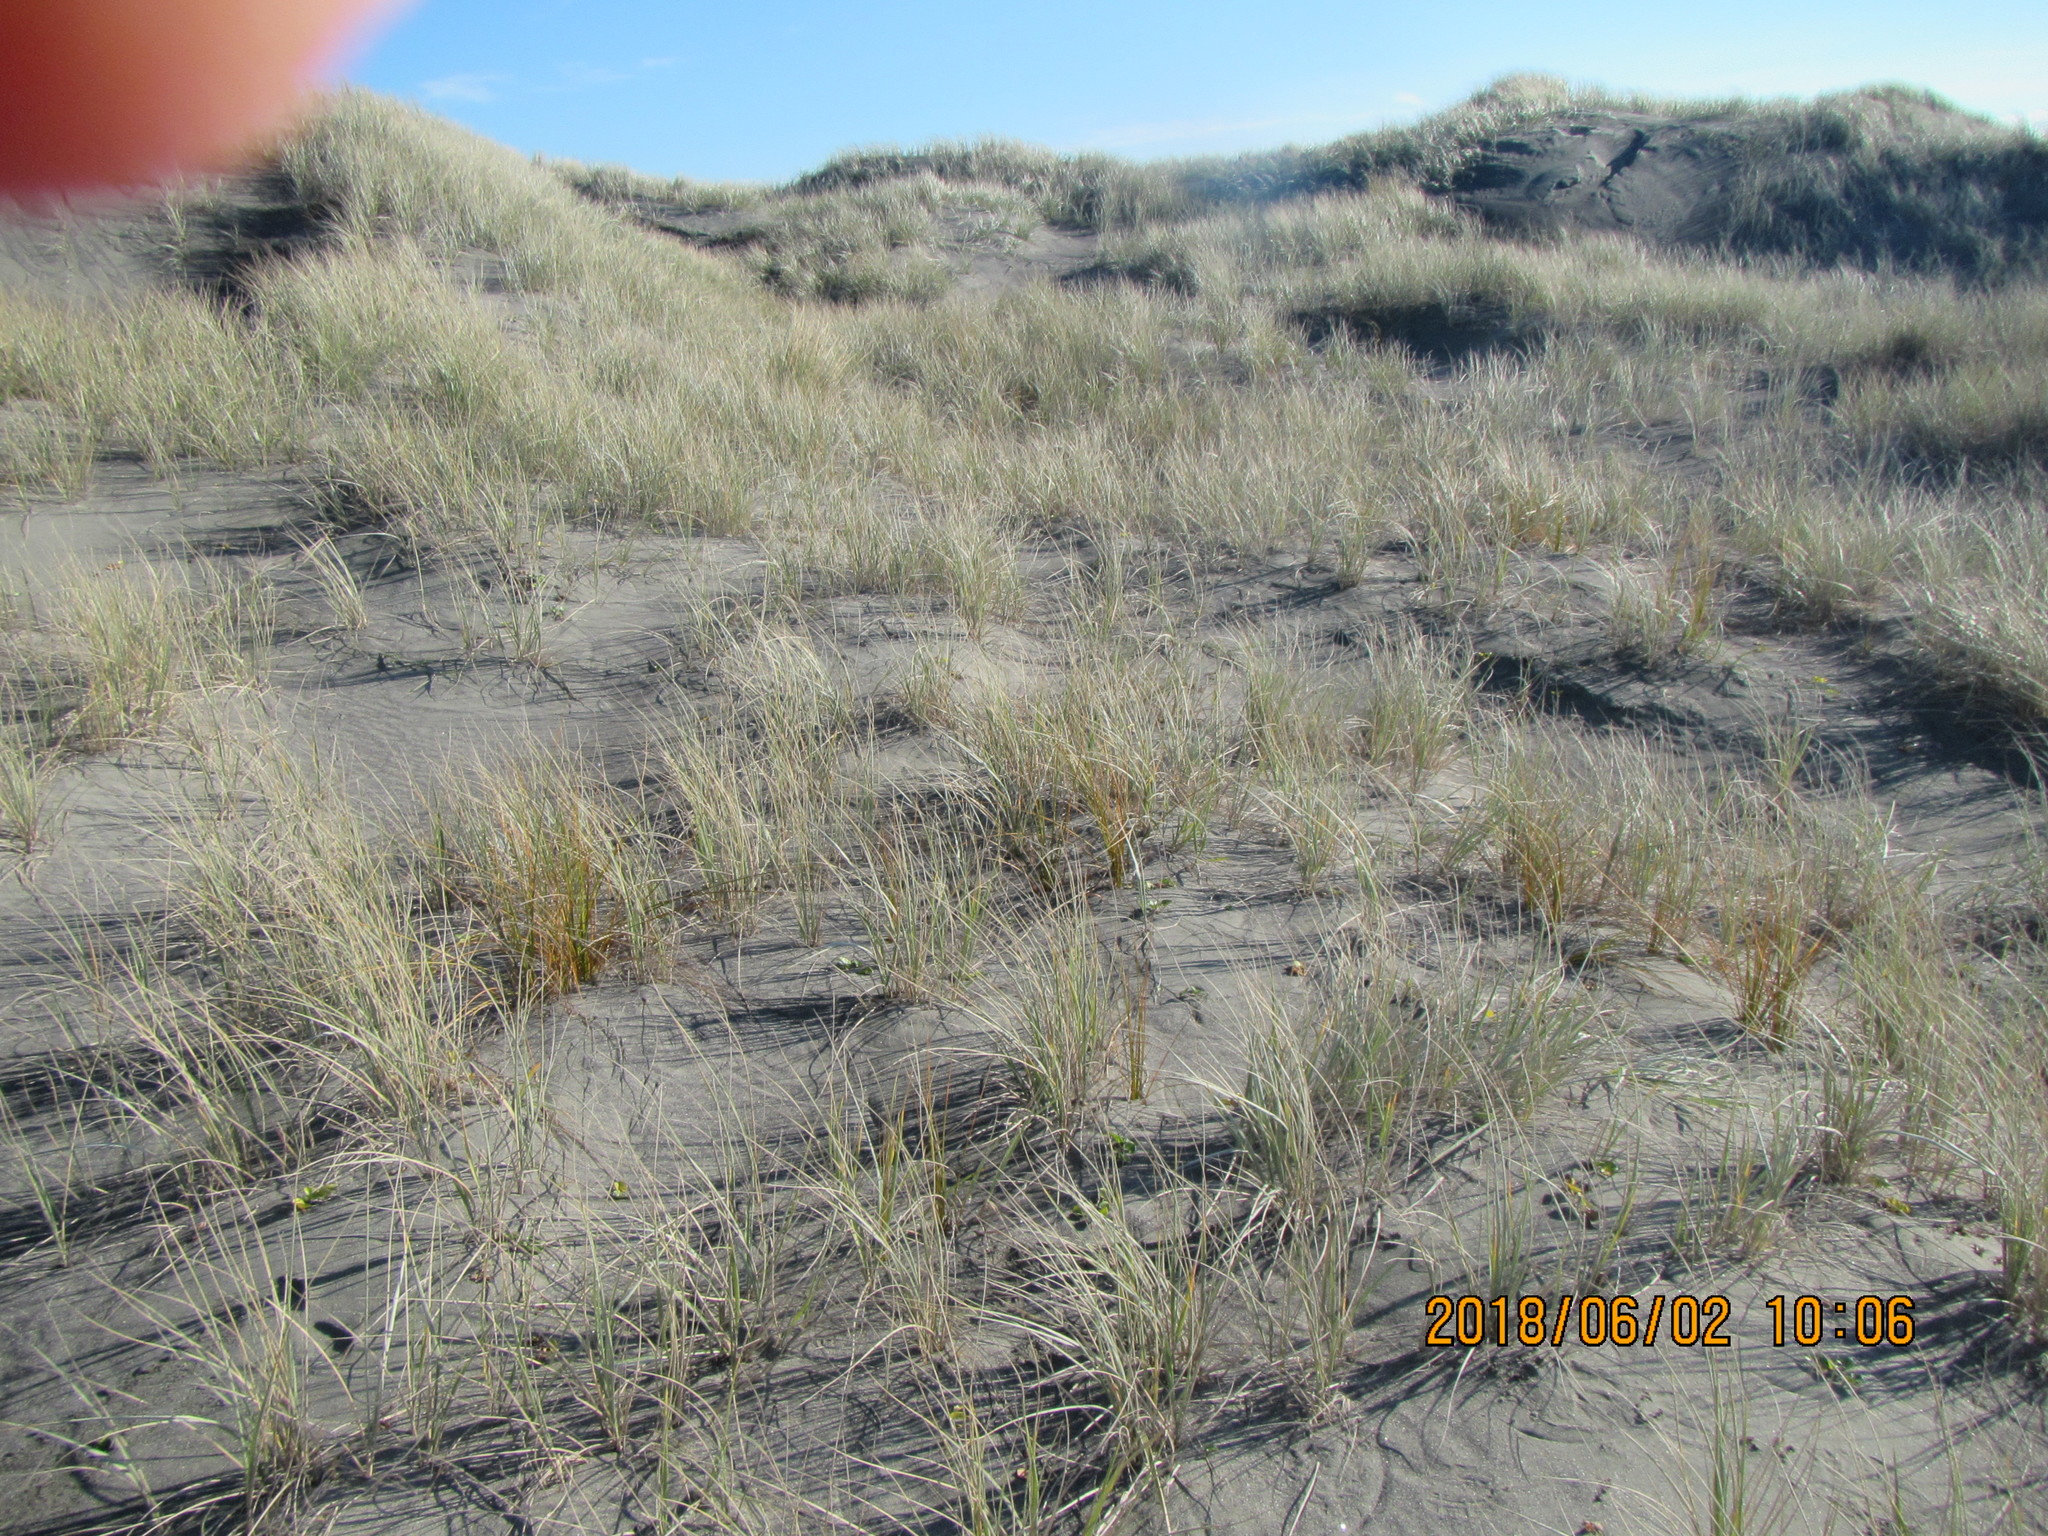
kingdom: Plantae
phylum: Tracheophyta
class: Liliopsida
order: Poales
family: Cyperaceae
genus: Ficinia
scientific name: Ficinia spiralis
